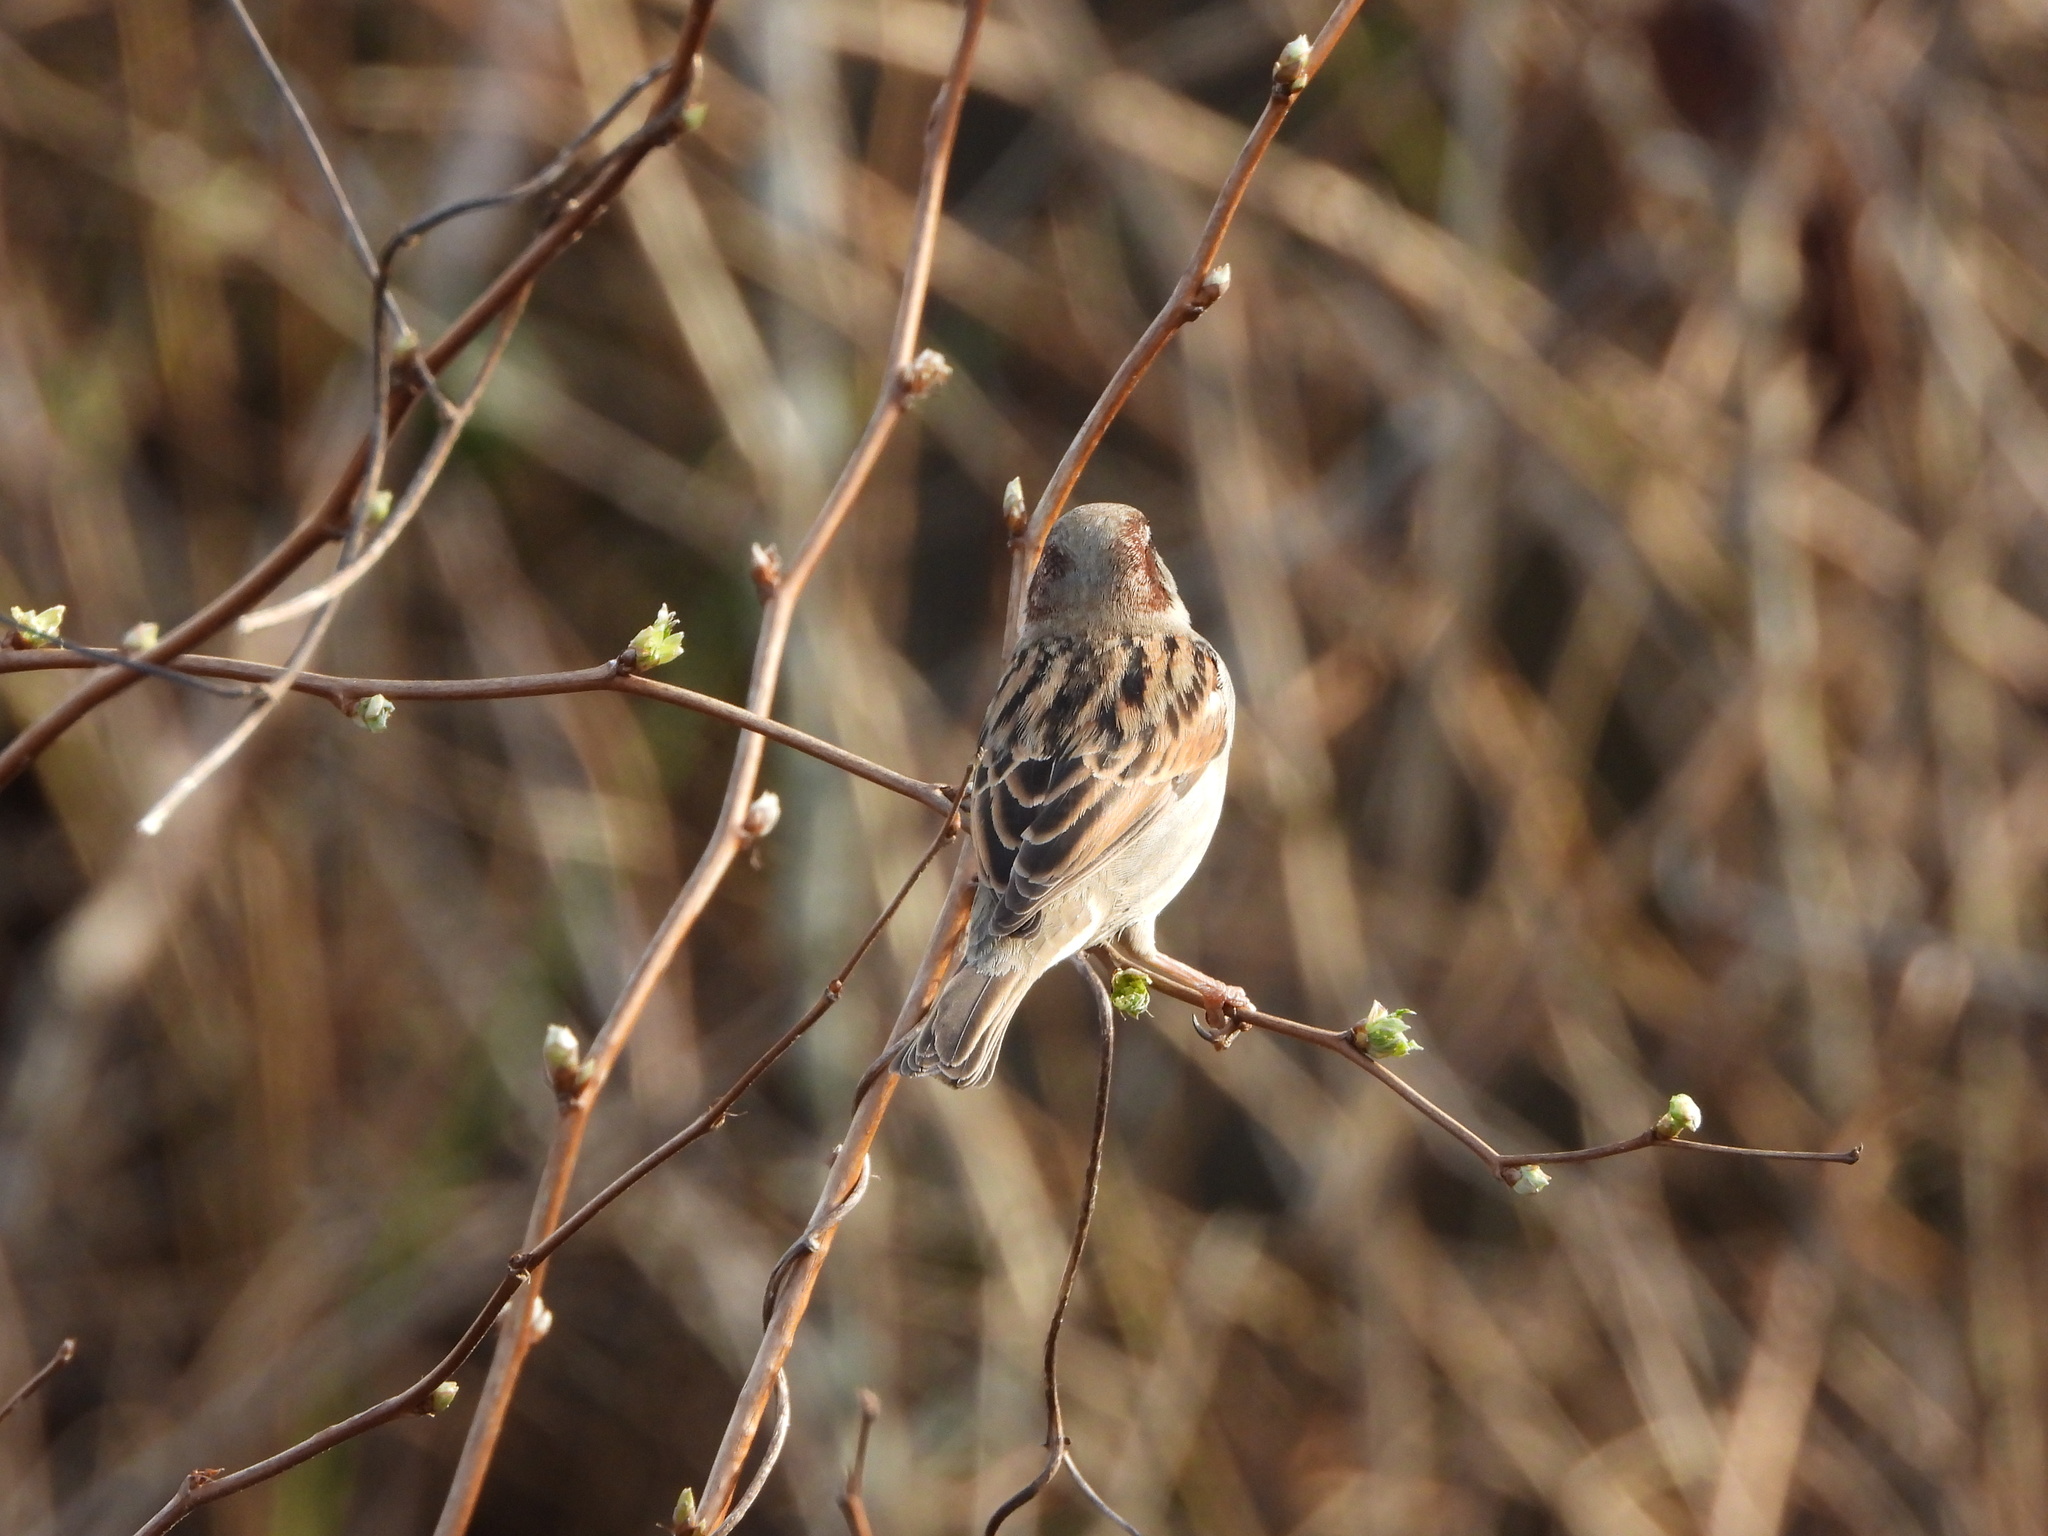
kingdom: Animalia
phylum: Chordata
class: Aves
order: Passeriformes
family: Passeridae
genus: Passer
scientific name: Passer domesticus
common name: House sparrow
